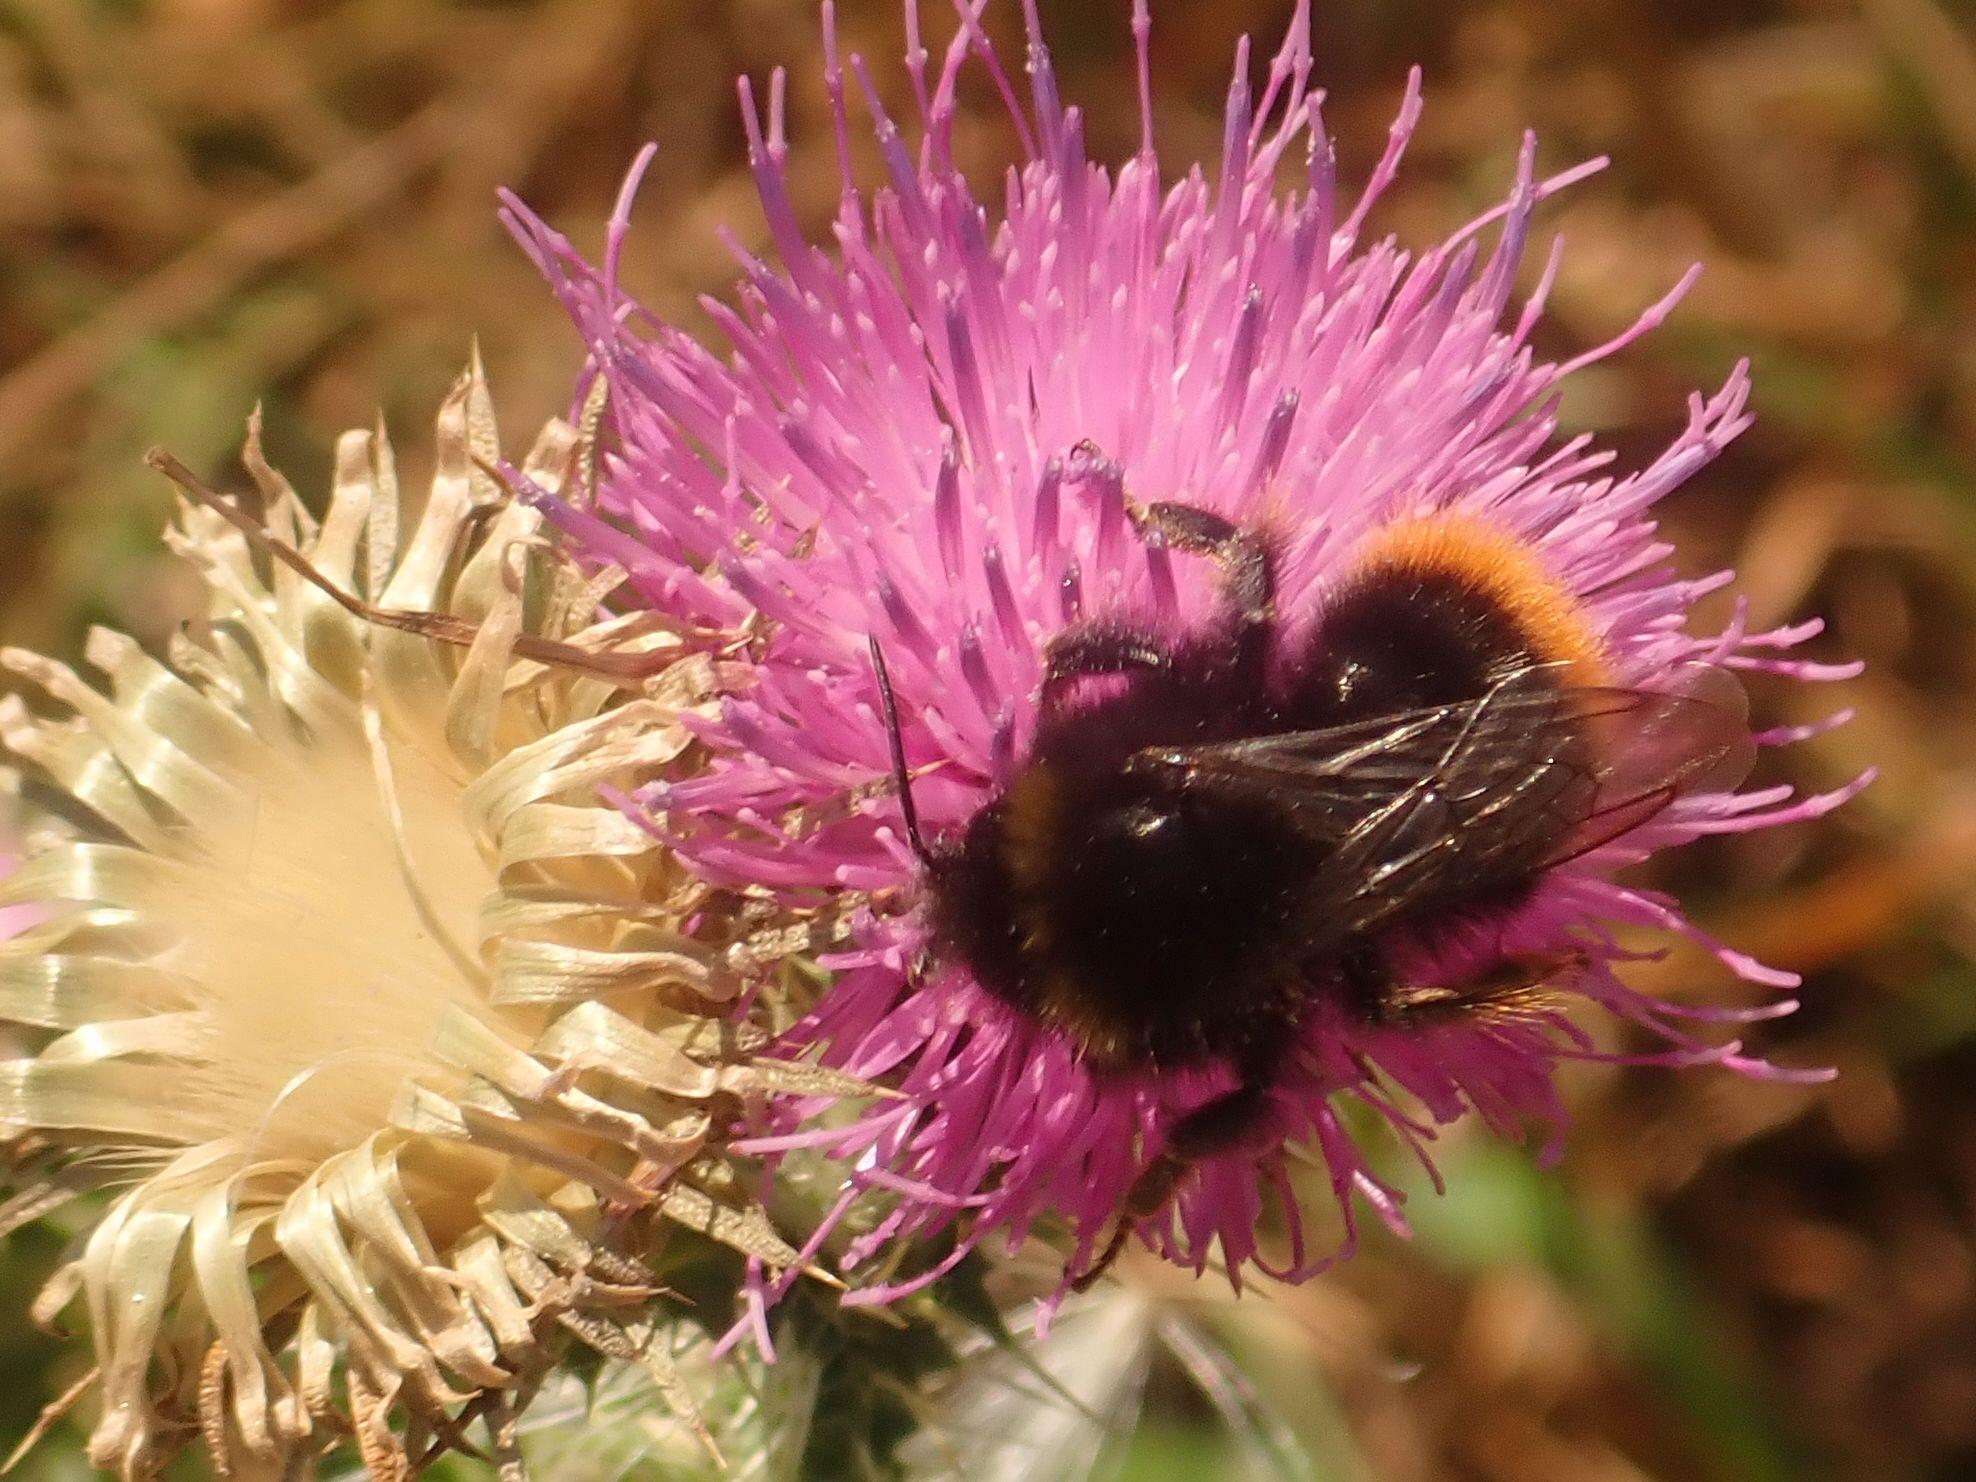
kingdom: Animalia
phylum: Arthropoda
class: Insecta
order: Hymenoptera
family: Apidae
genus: Bombus
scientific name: Bombus lapidarius
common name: Large red-tailed humble-bee
